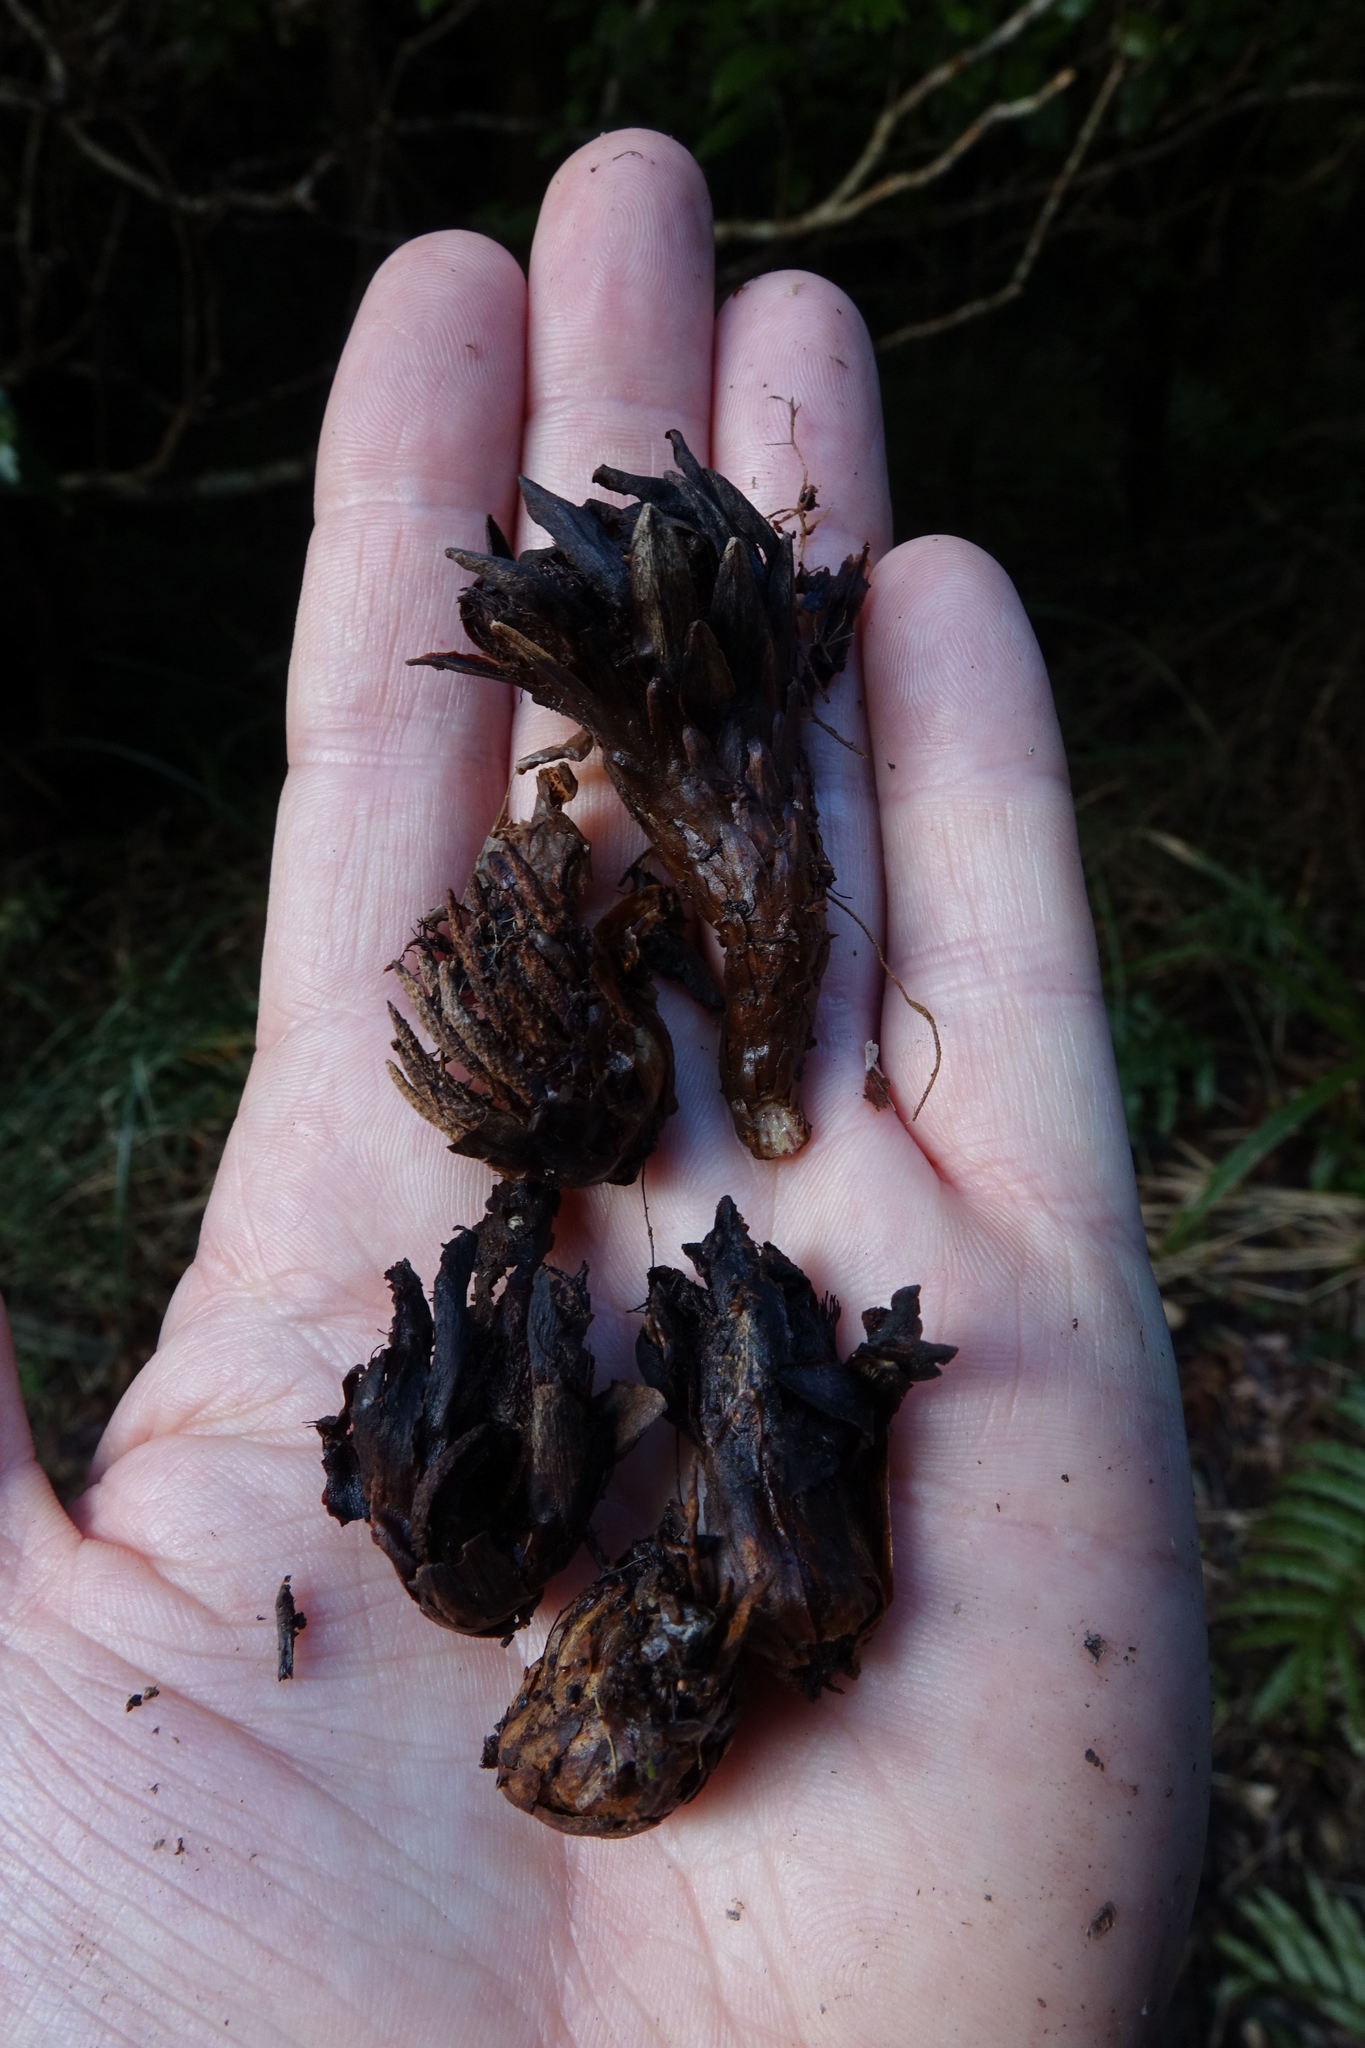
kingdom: Plantae
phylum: Tracheophyta
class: Magnoliopsida
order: Santalales
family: Mystropetalaceae
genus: Dactylanthus
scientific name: Dactylanthus taylorii
